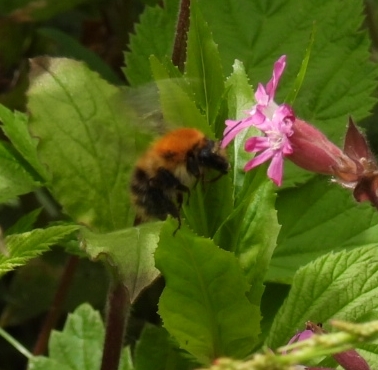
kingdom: Animalia
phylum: Arthropoda
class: Insecta
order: Hymenoptera
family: Apidae
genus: Bombus
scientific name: Bombus pascuorum
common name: Common carder bee
